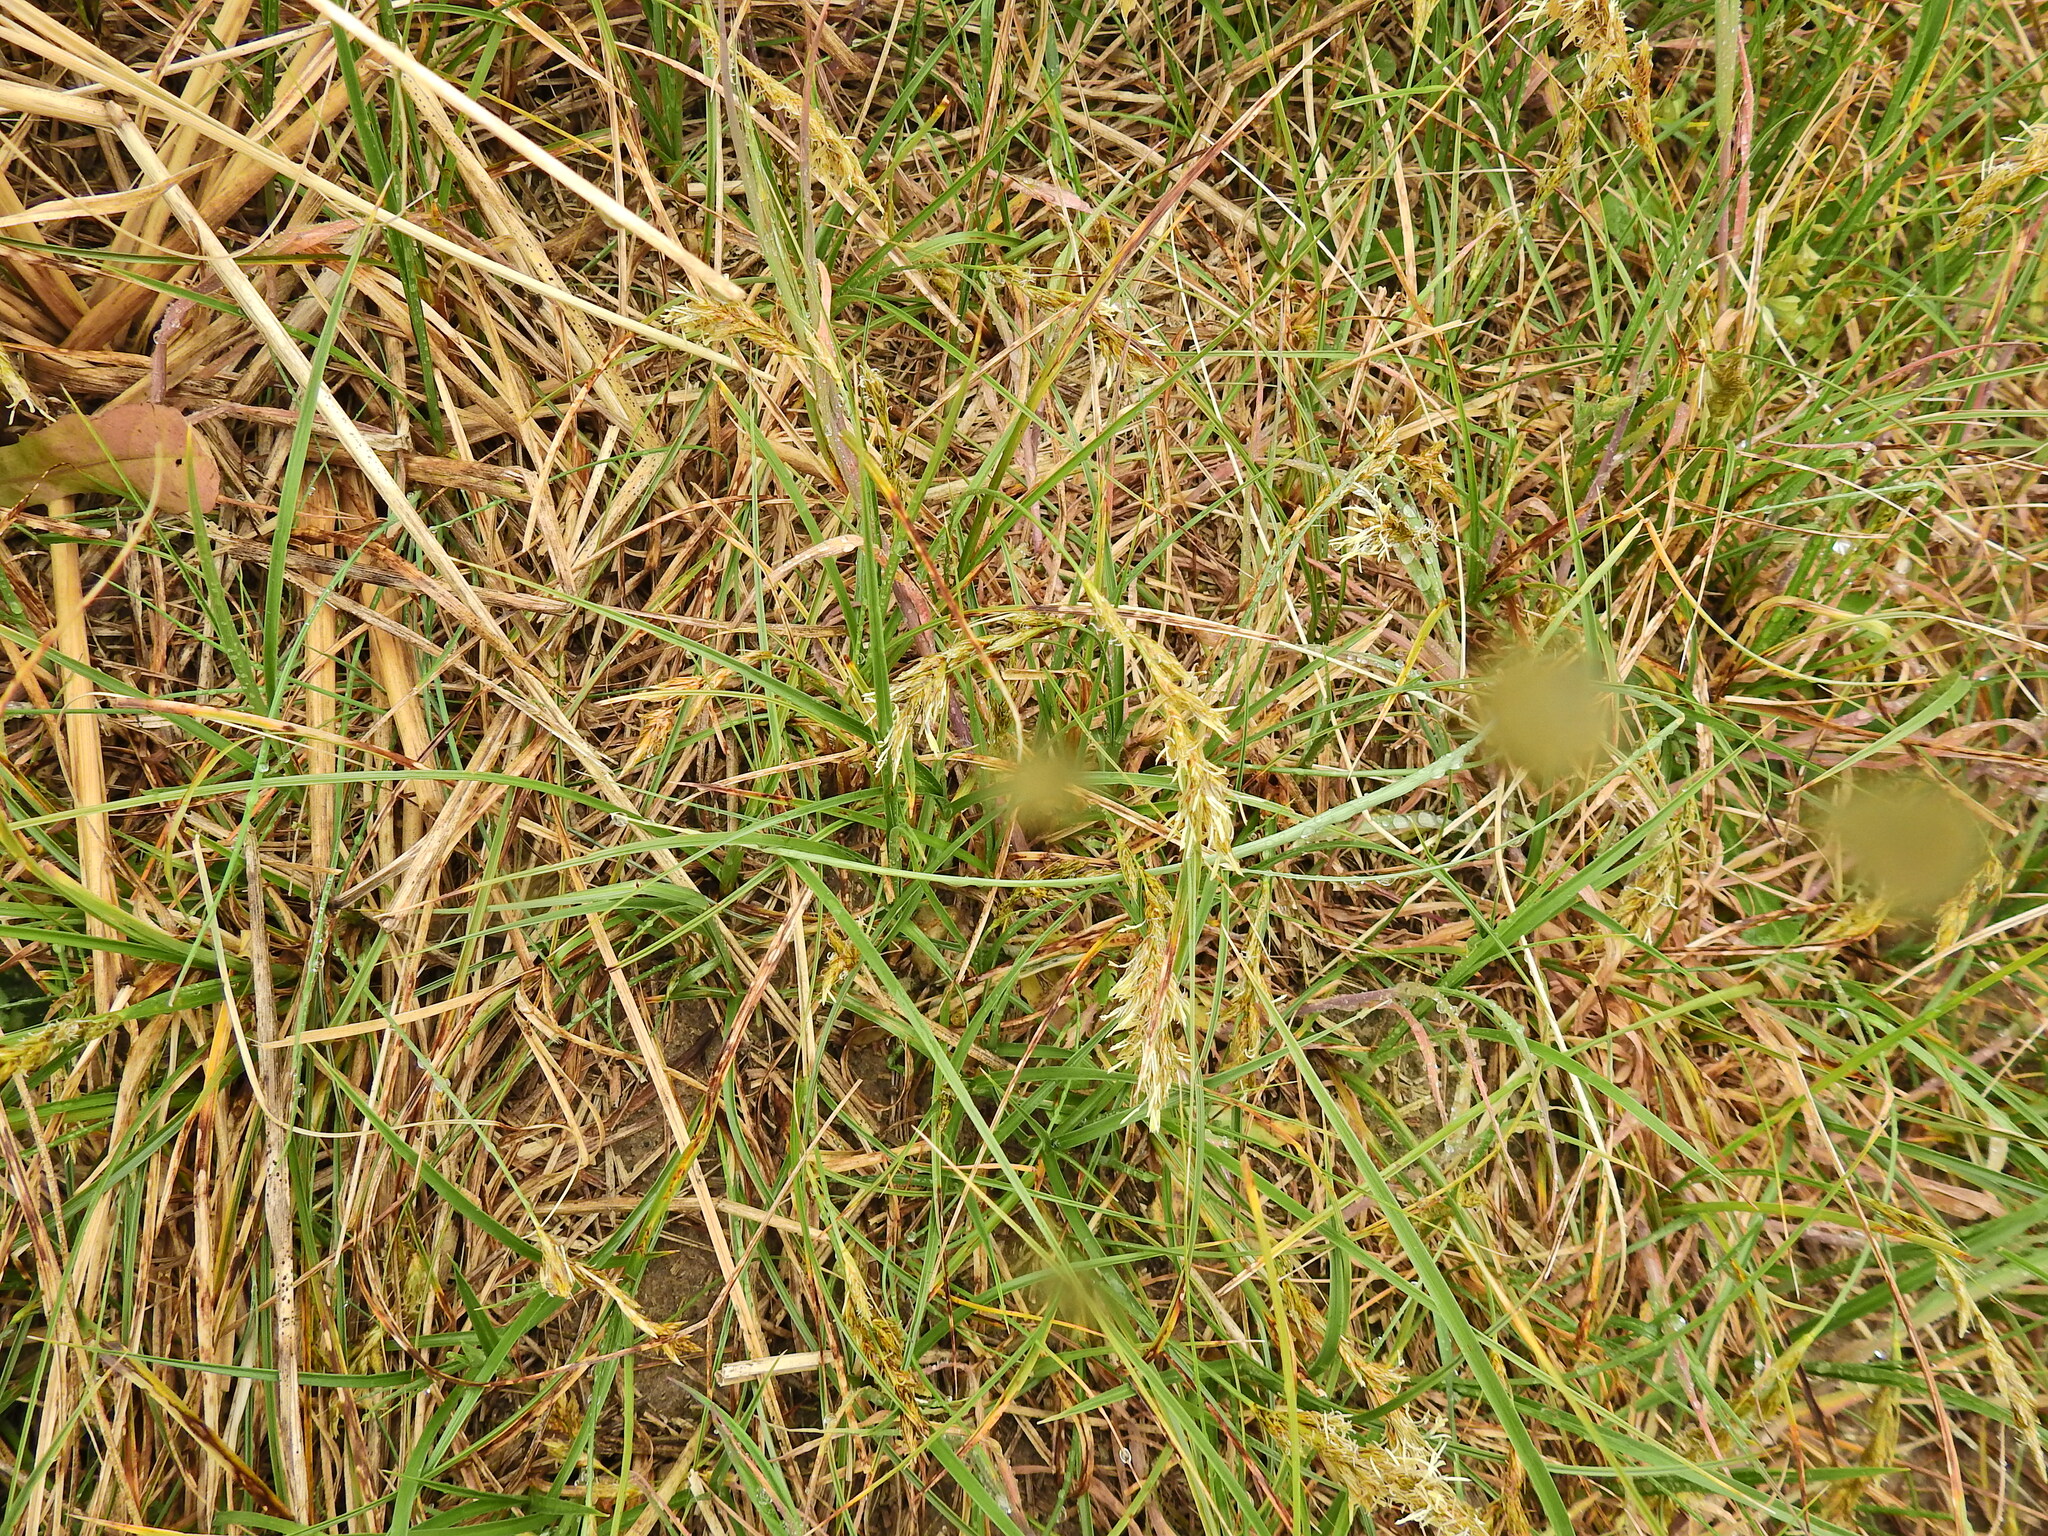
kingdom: Plantae
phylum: Tracheophyta
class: Liliopsida
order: Poales
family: Cyperaceae
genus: Carex
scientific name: Carex arenaria
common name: Sand sedge
